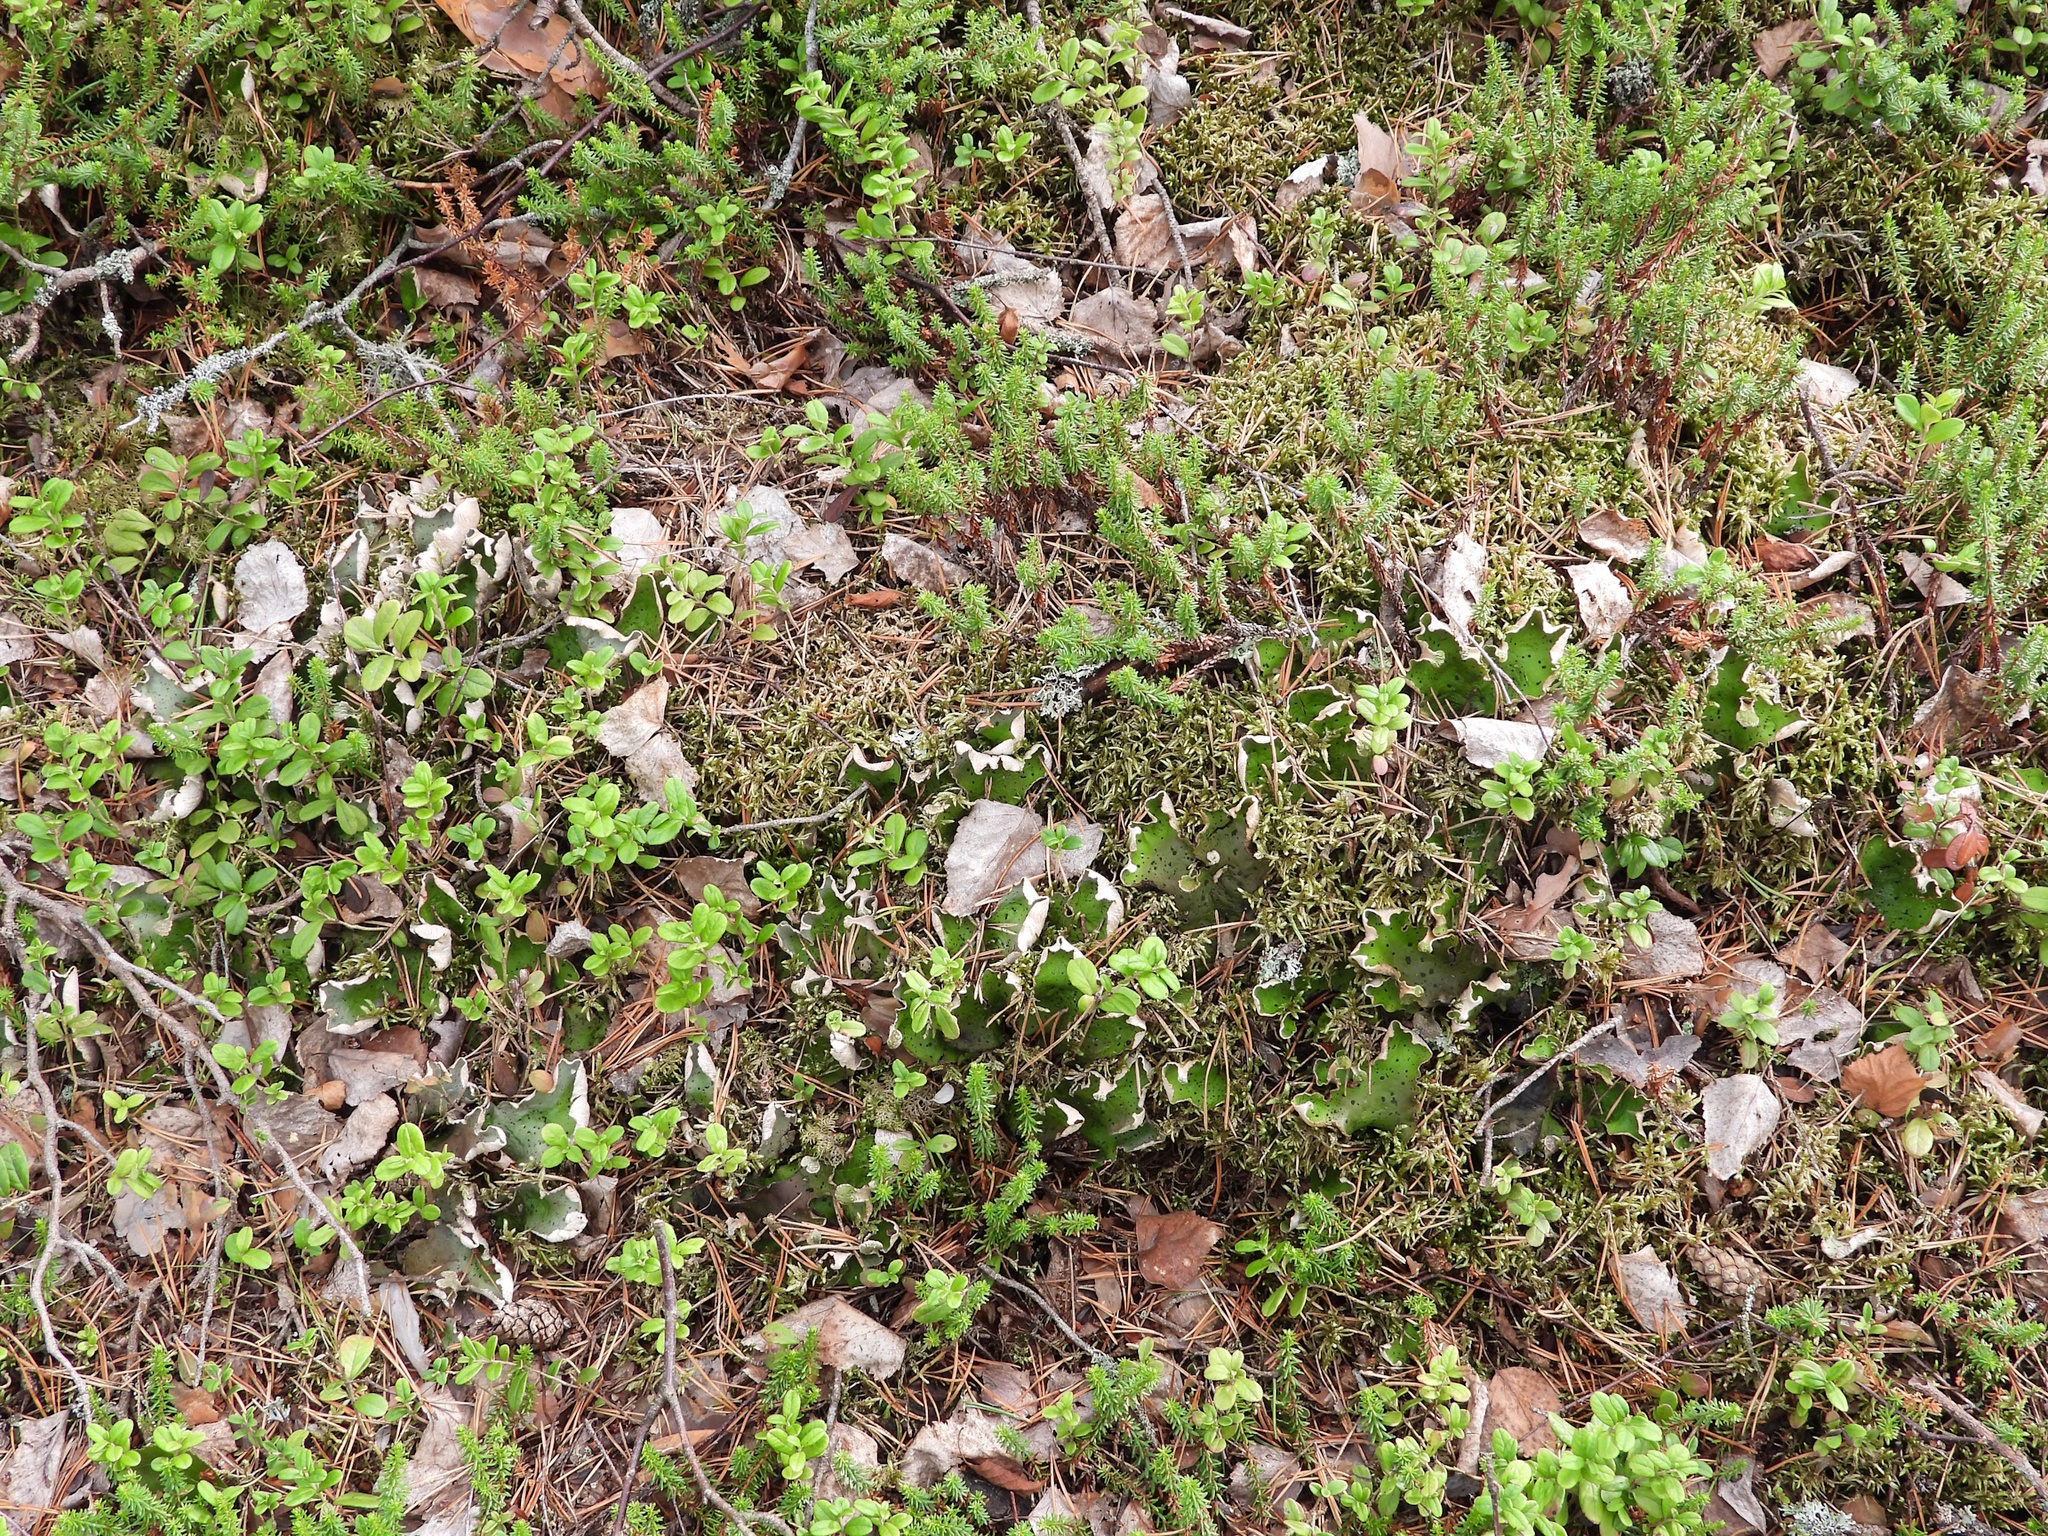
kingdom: Fungi
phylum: Ascomycota
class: Lecanoromycetes
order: Peltigerales
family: Peltigeraceae
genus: Peltigera
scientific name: Peltigera aphthosa
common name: Common freckle pelt lichen
